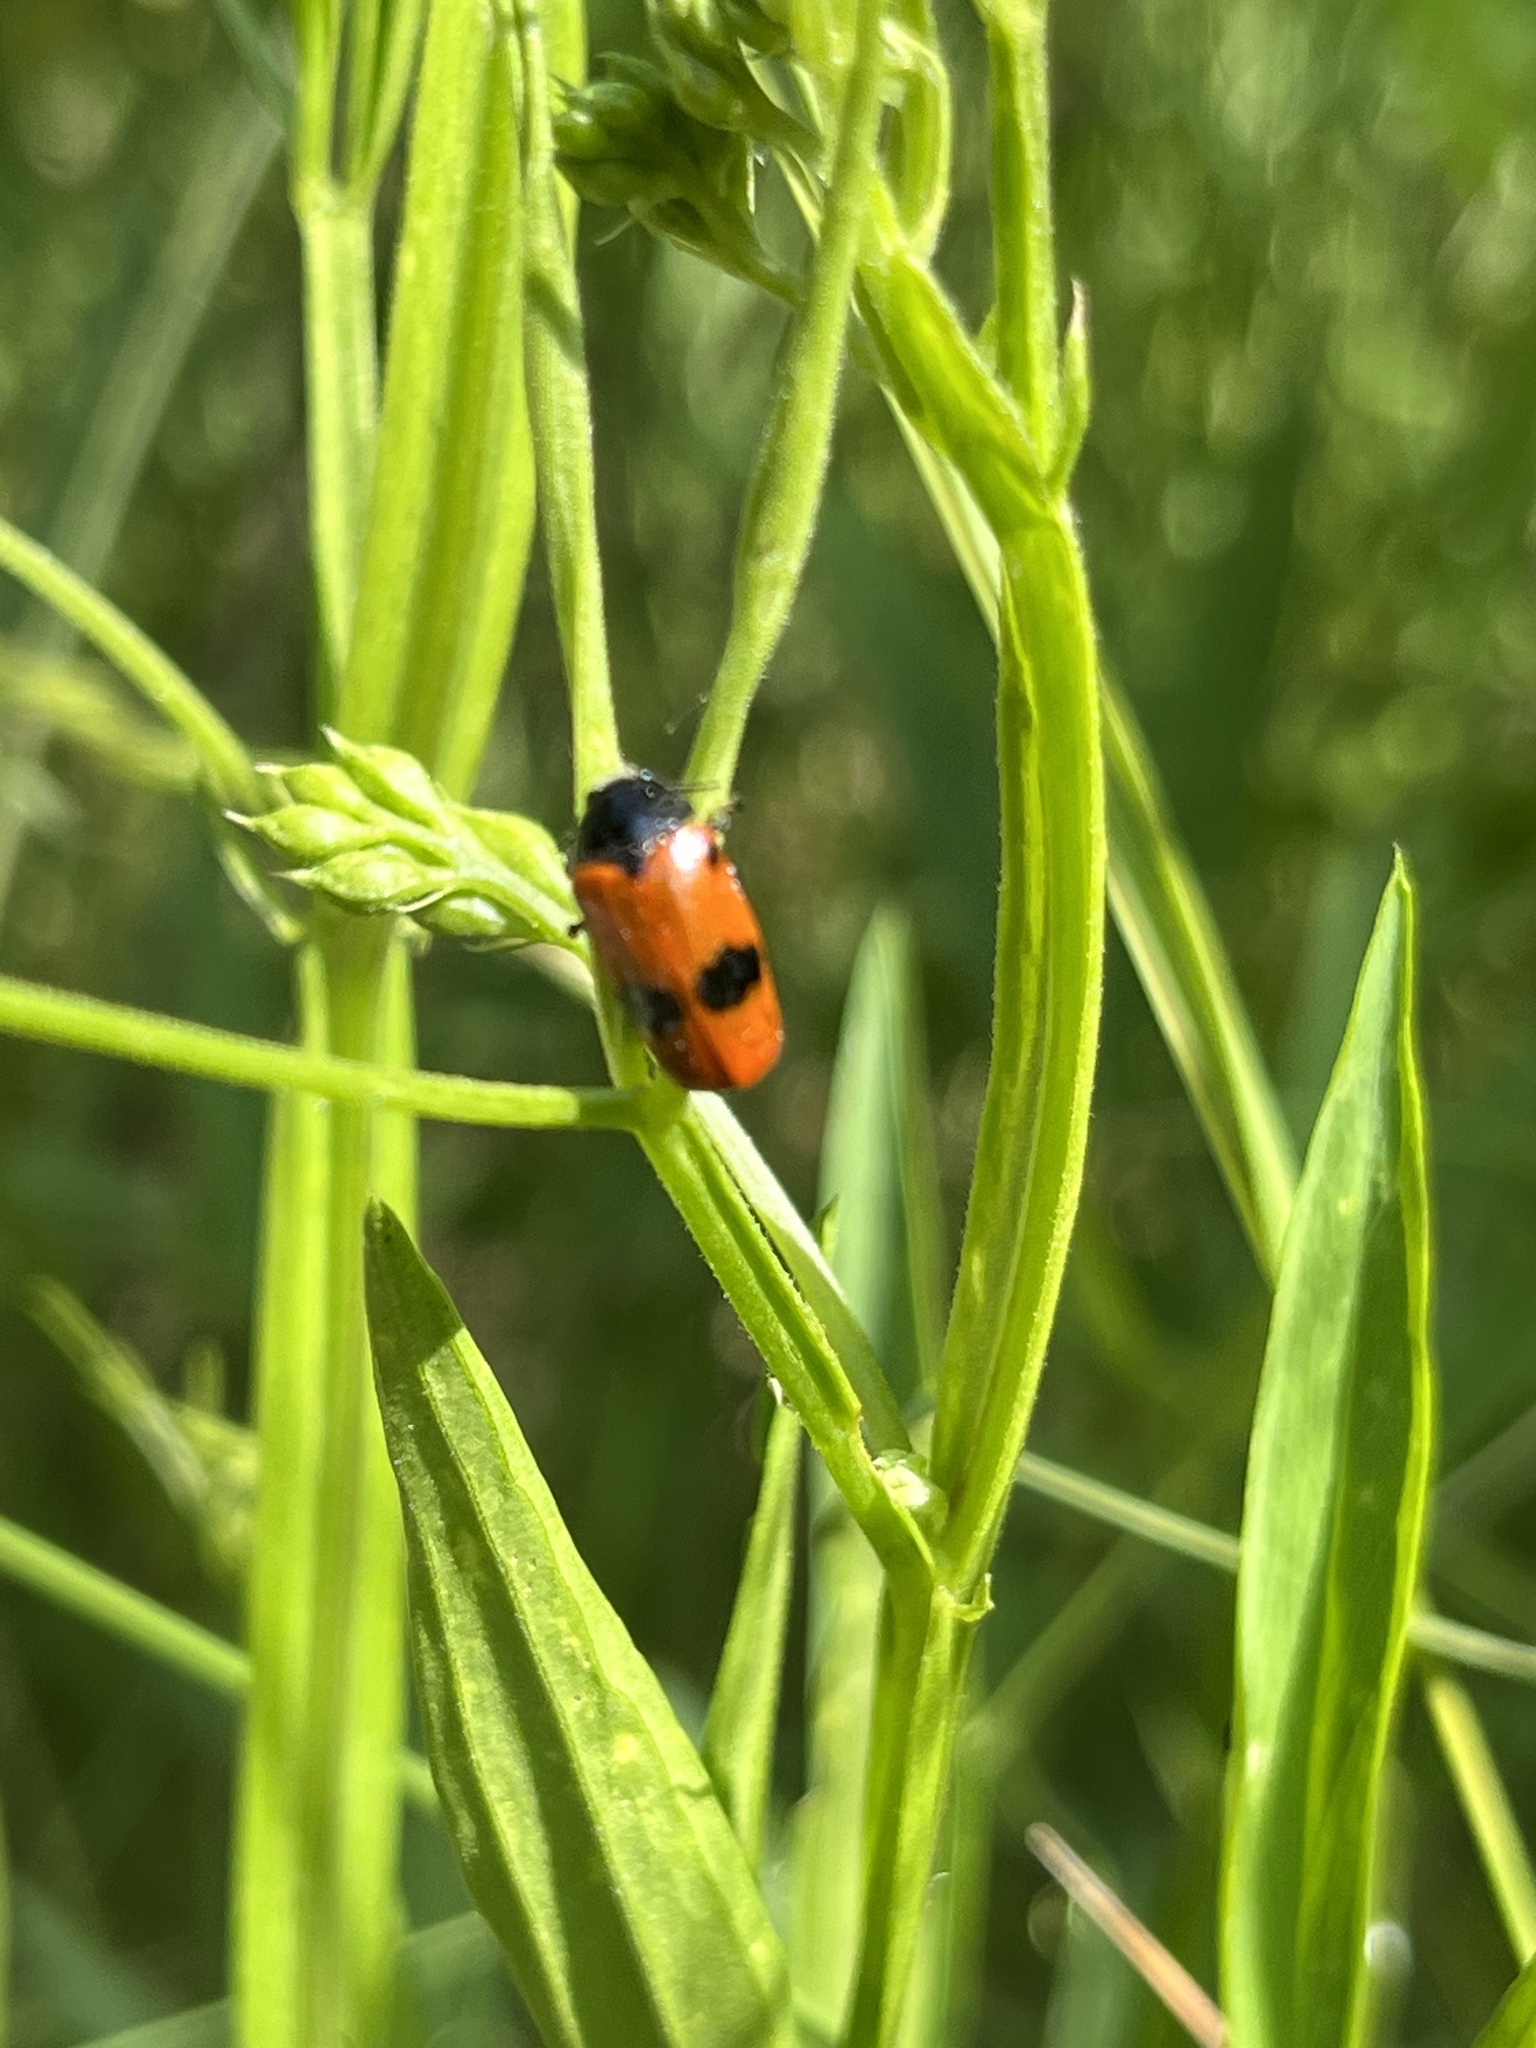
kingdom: Animalia
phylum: Arthropoda
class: Insecta
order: Coleoptera
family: Chrysomelidae
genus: Clytra
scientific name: Clytra laeviuscula
